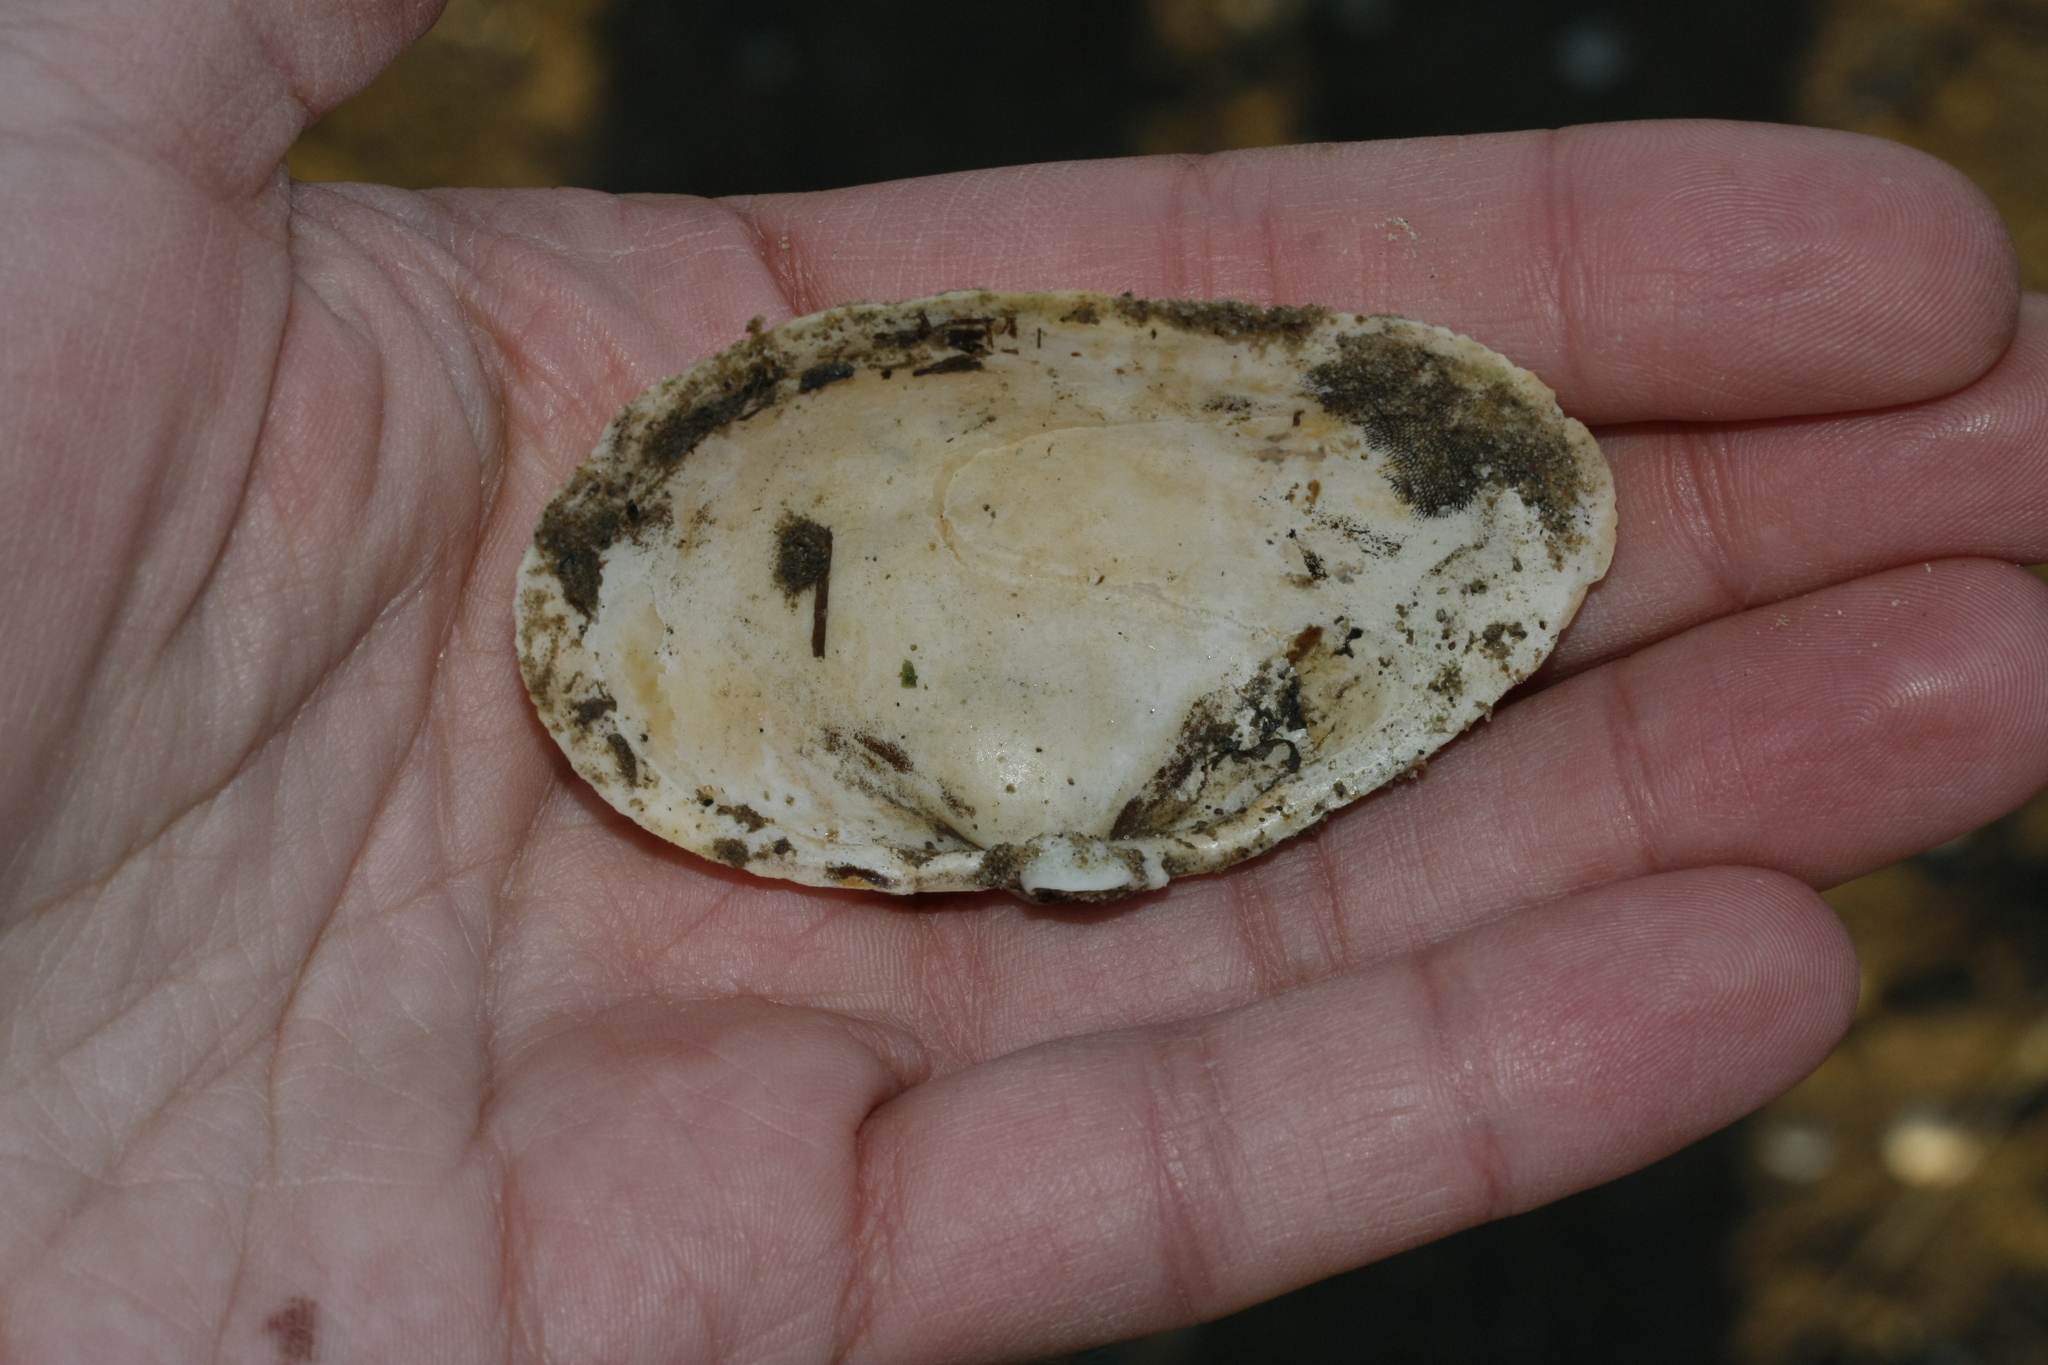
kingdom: Animalia
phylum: Mollusca
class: Bivalvia
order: Myida
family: Myidae
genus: Mya
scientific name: Mya arenaria
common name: Soft-shelled clam
